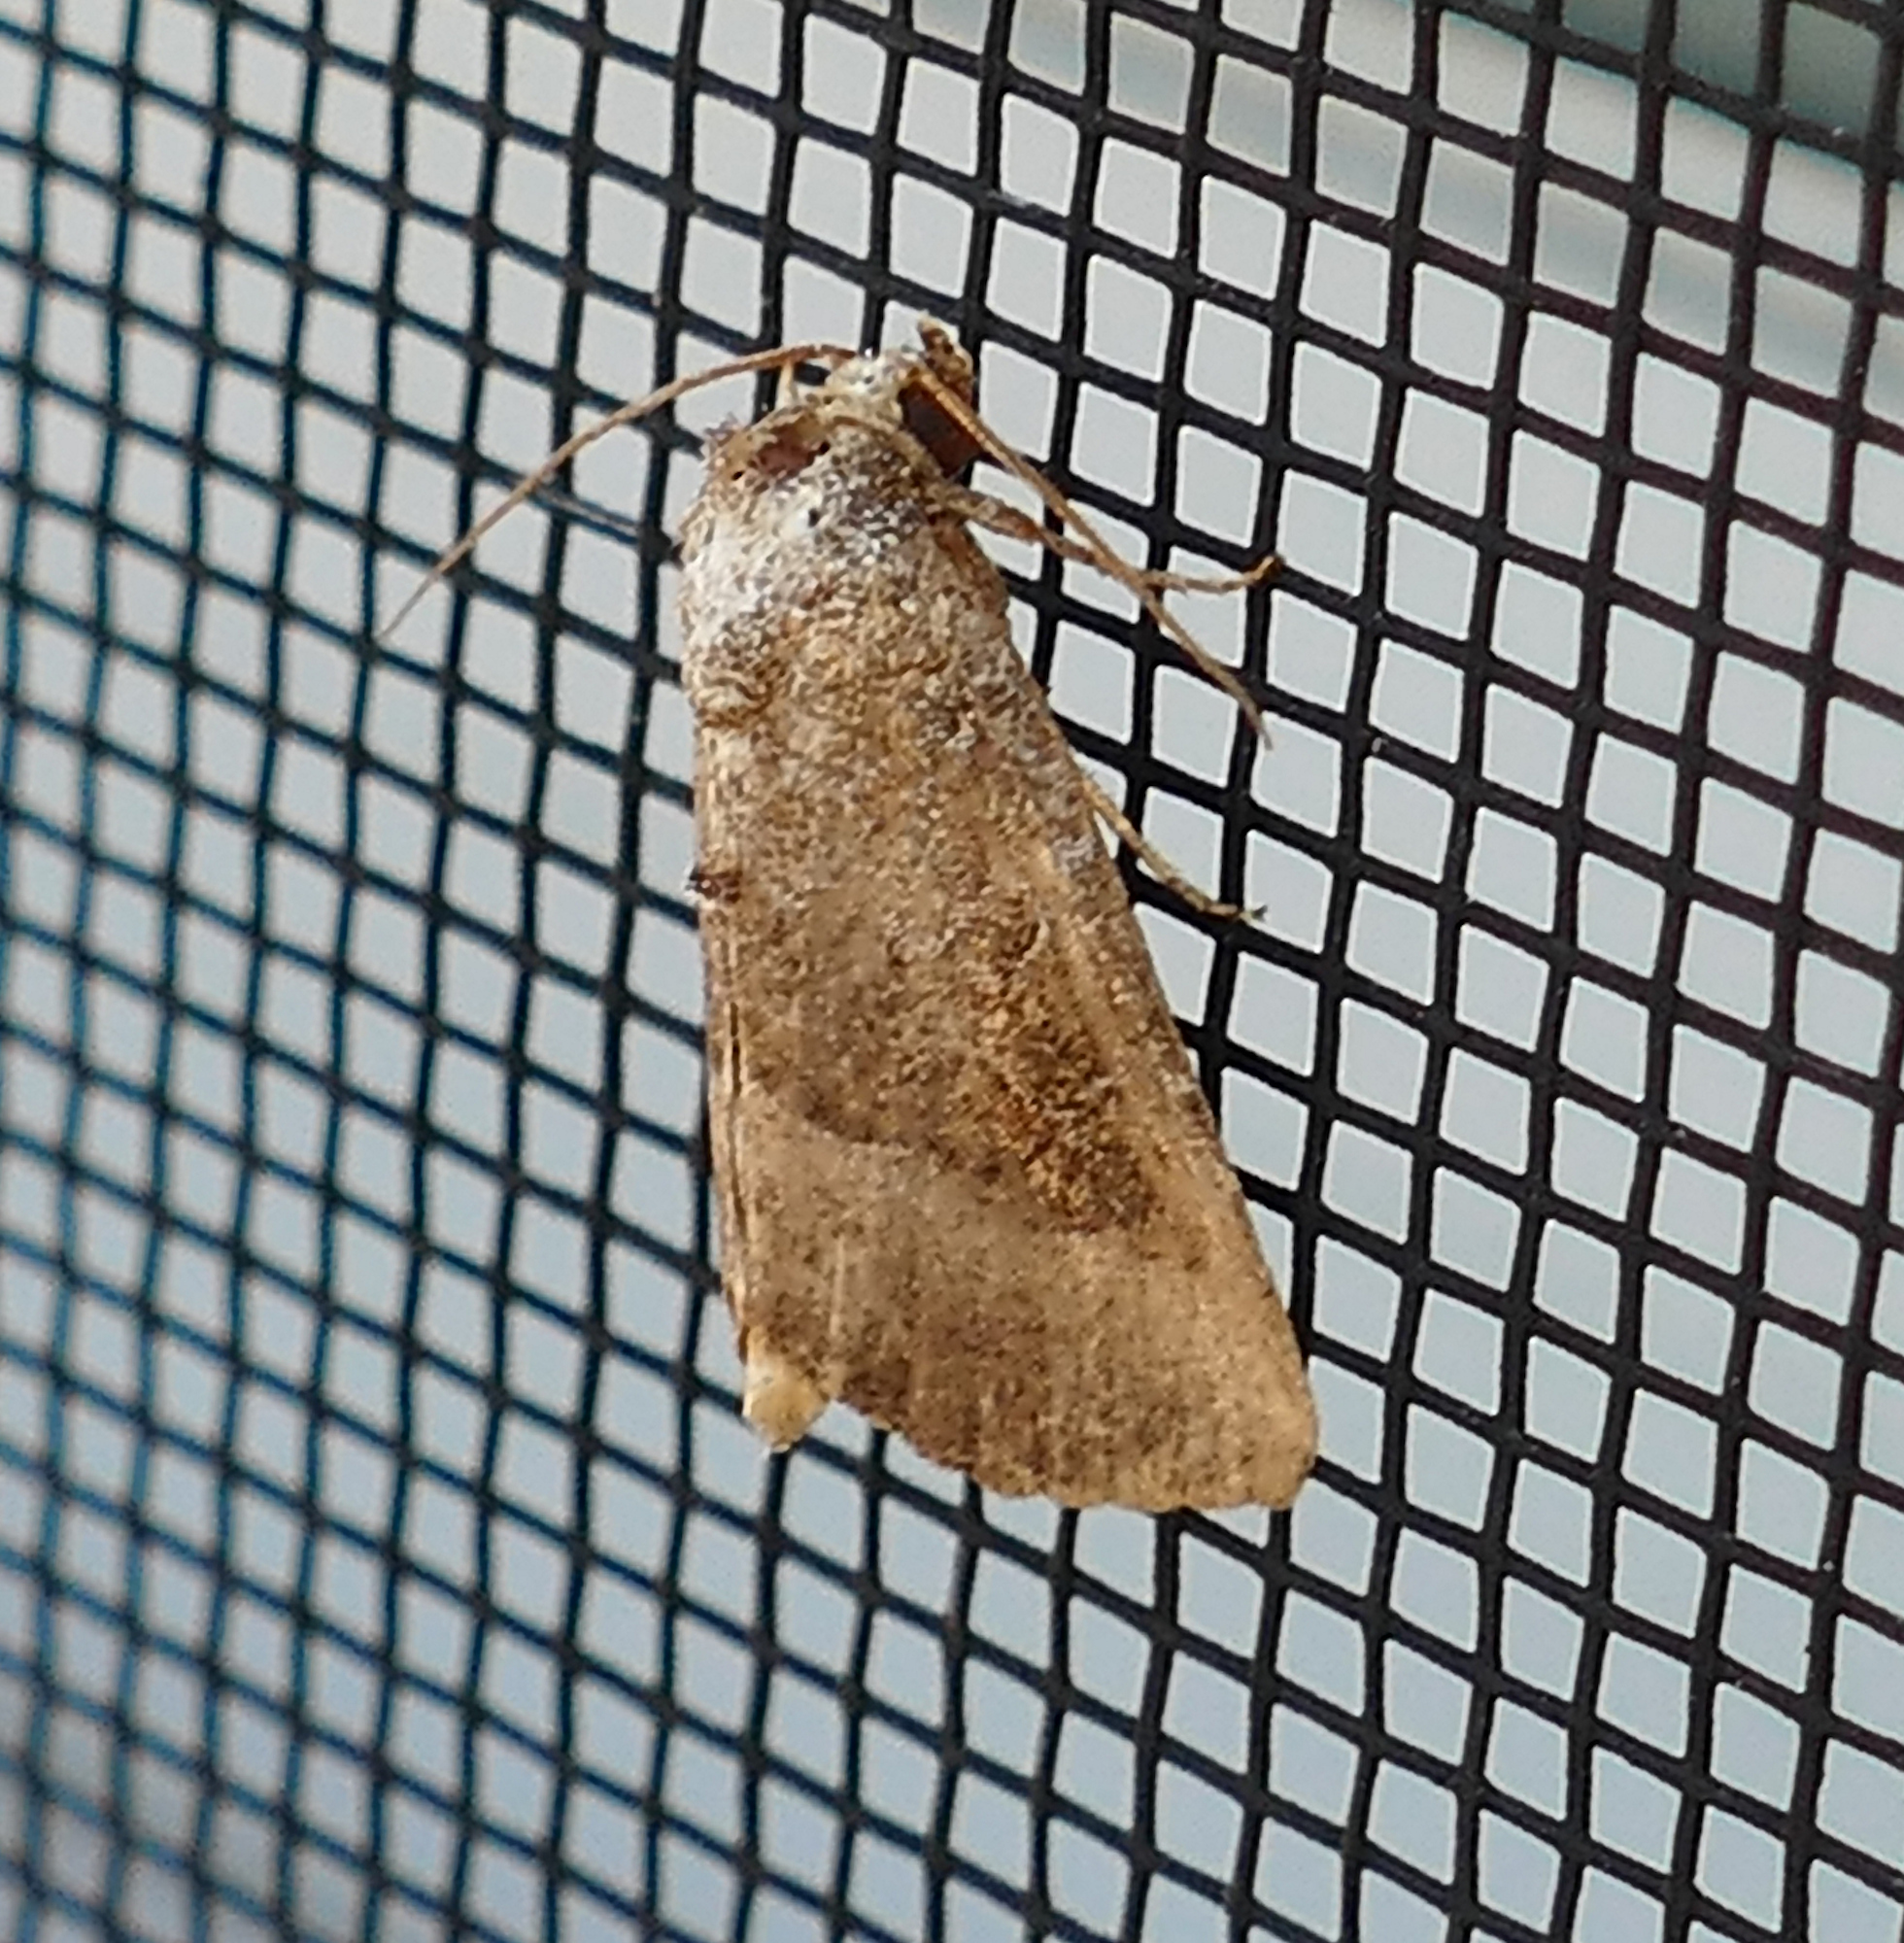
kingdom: Animalia
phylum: Arthropoda
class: Insecta
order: Lepidoptera
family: Noctuidae
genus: Ogdoconta
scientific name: Ogdoconta cinereola
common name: Common pinkband
